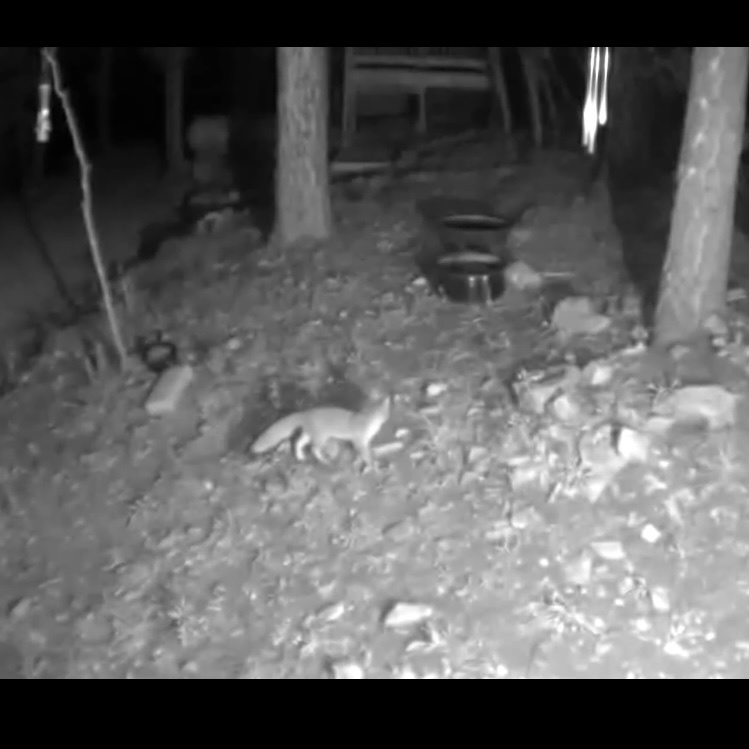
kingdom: Animalia
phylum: Chordata
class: Mammalia
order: Carnivora
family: Canidae
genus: Urocyon
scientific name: Urocyon cinereoargenteus
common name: Gray fox
